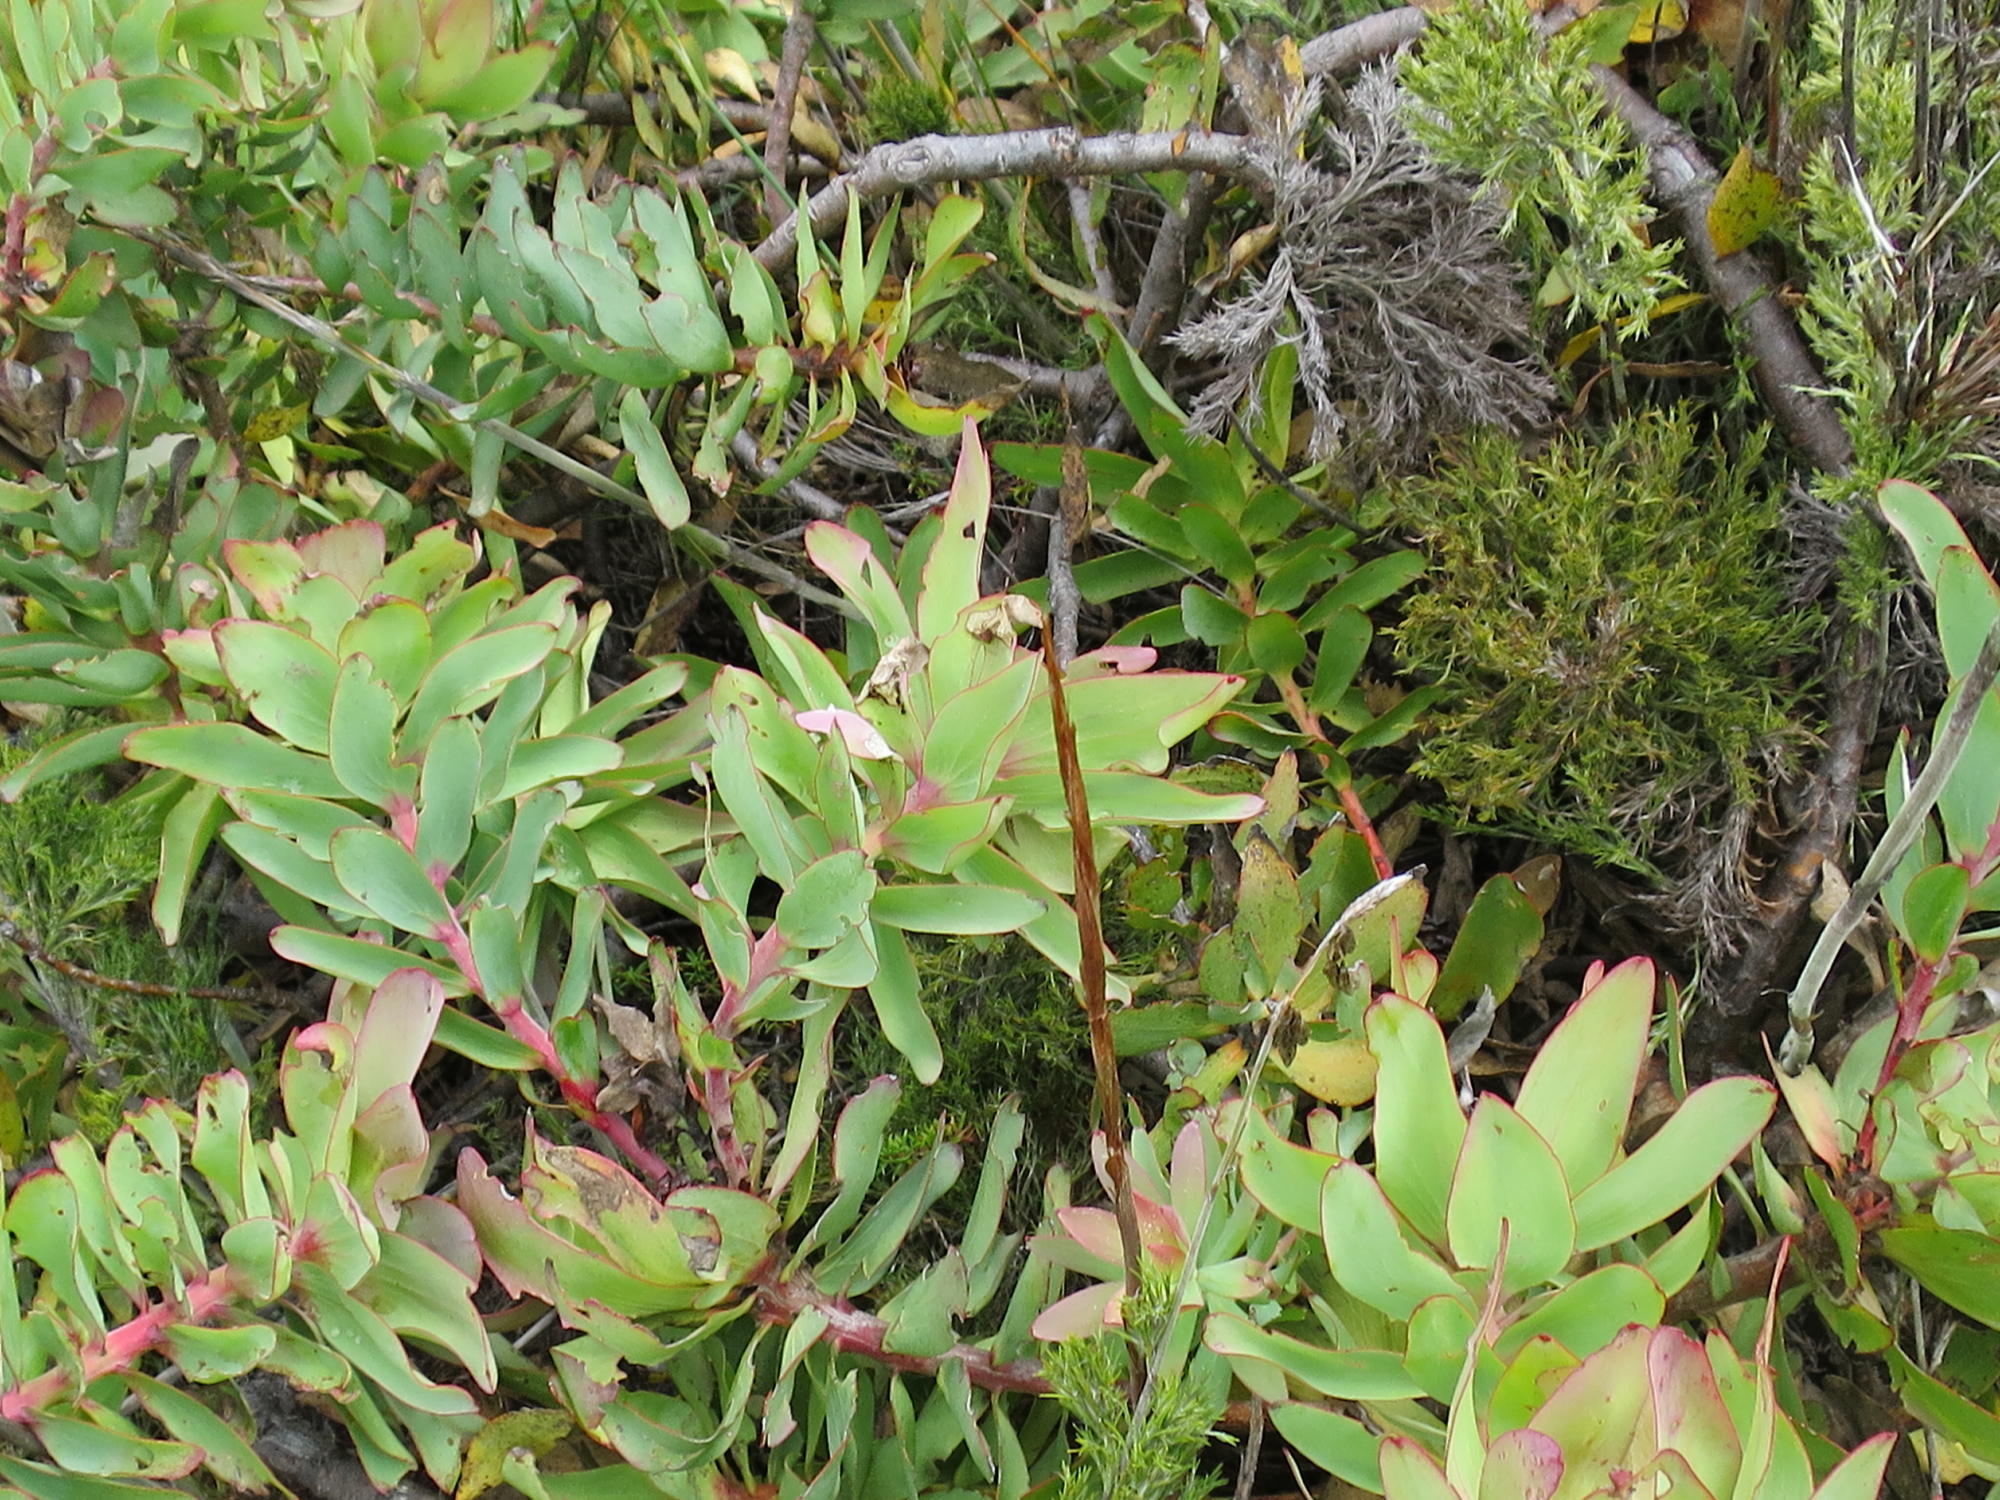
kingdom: Plantae
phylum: Tracheophyta
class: Magnoliopsida
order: Proteales
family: Proteaceae
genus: Leucadendron
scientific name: Leucadendron cordatum
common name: Droopy conebush
